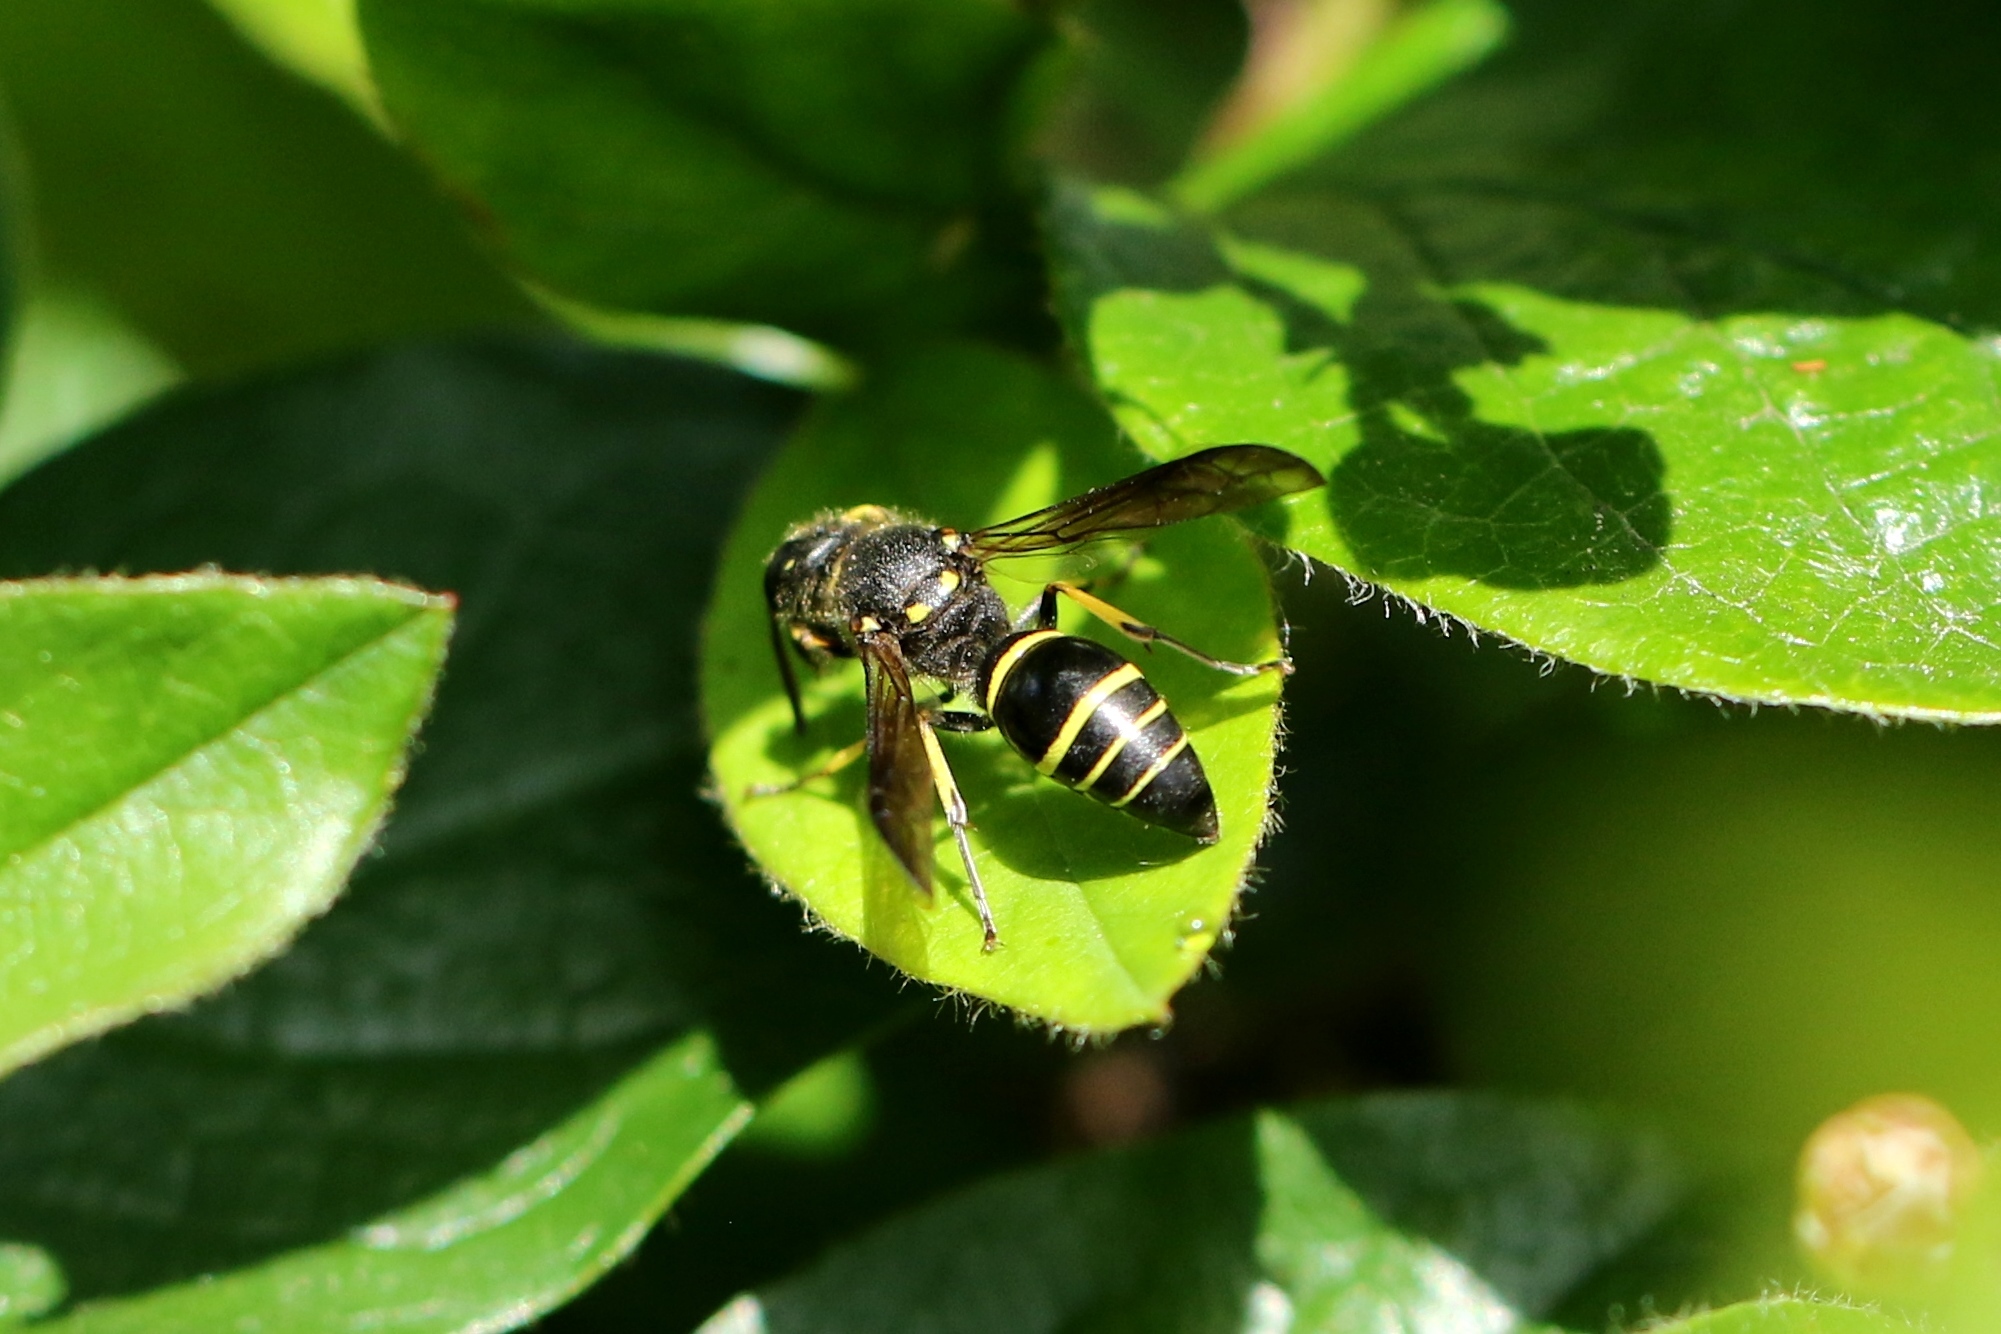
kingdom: Animalia
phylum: Arthropoda
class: Insecta
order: Hymenoptera
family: Vespidae
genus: Ancistrocerus
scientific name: Ancistrocerus
